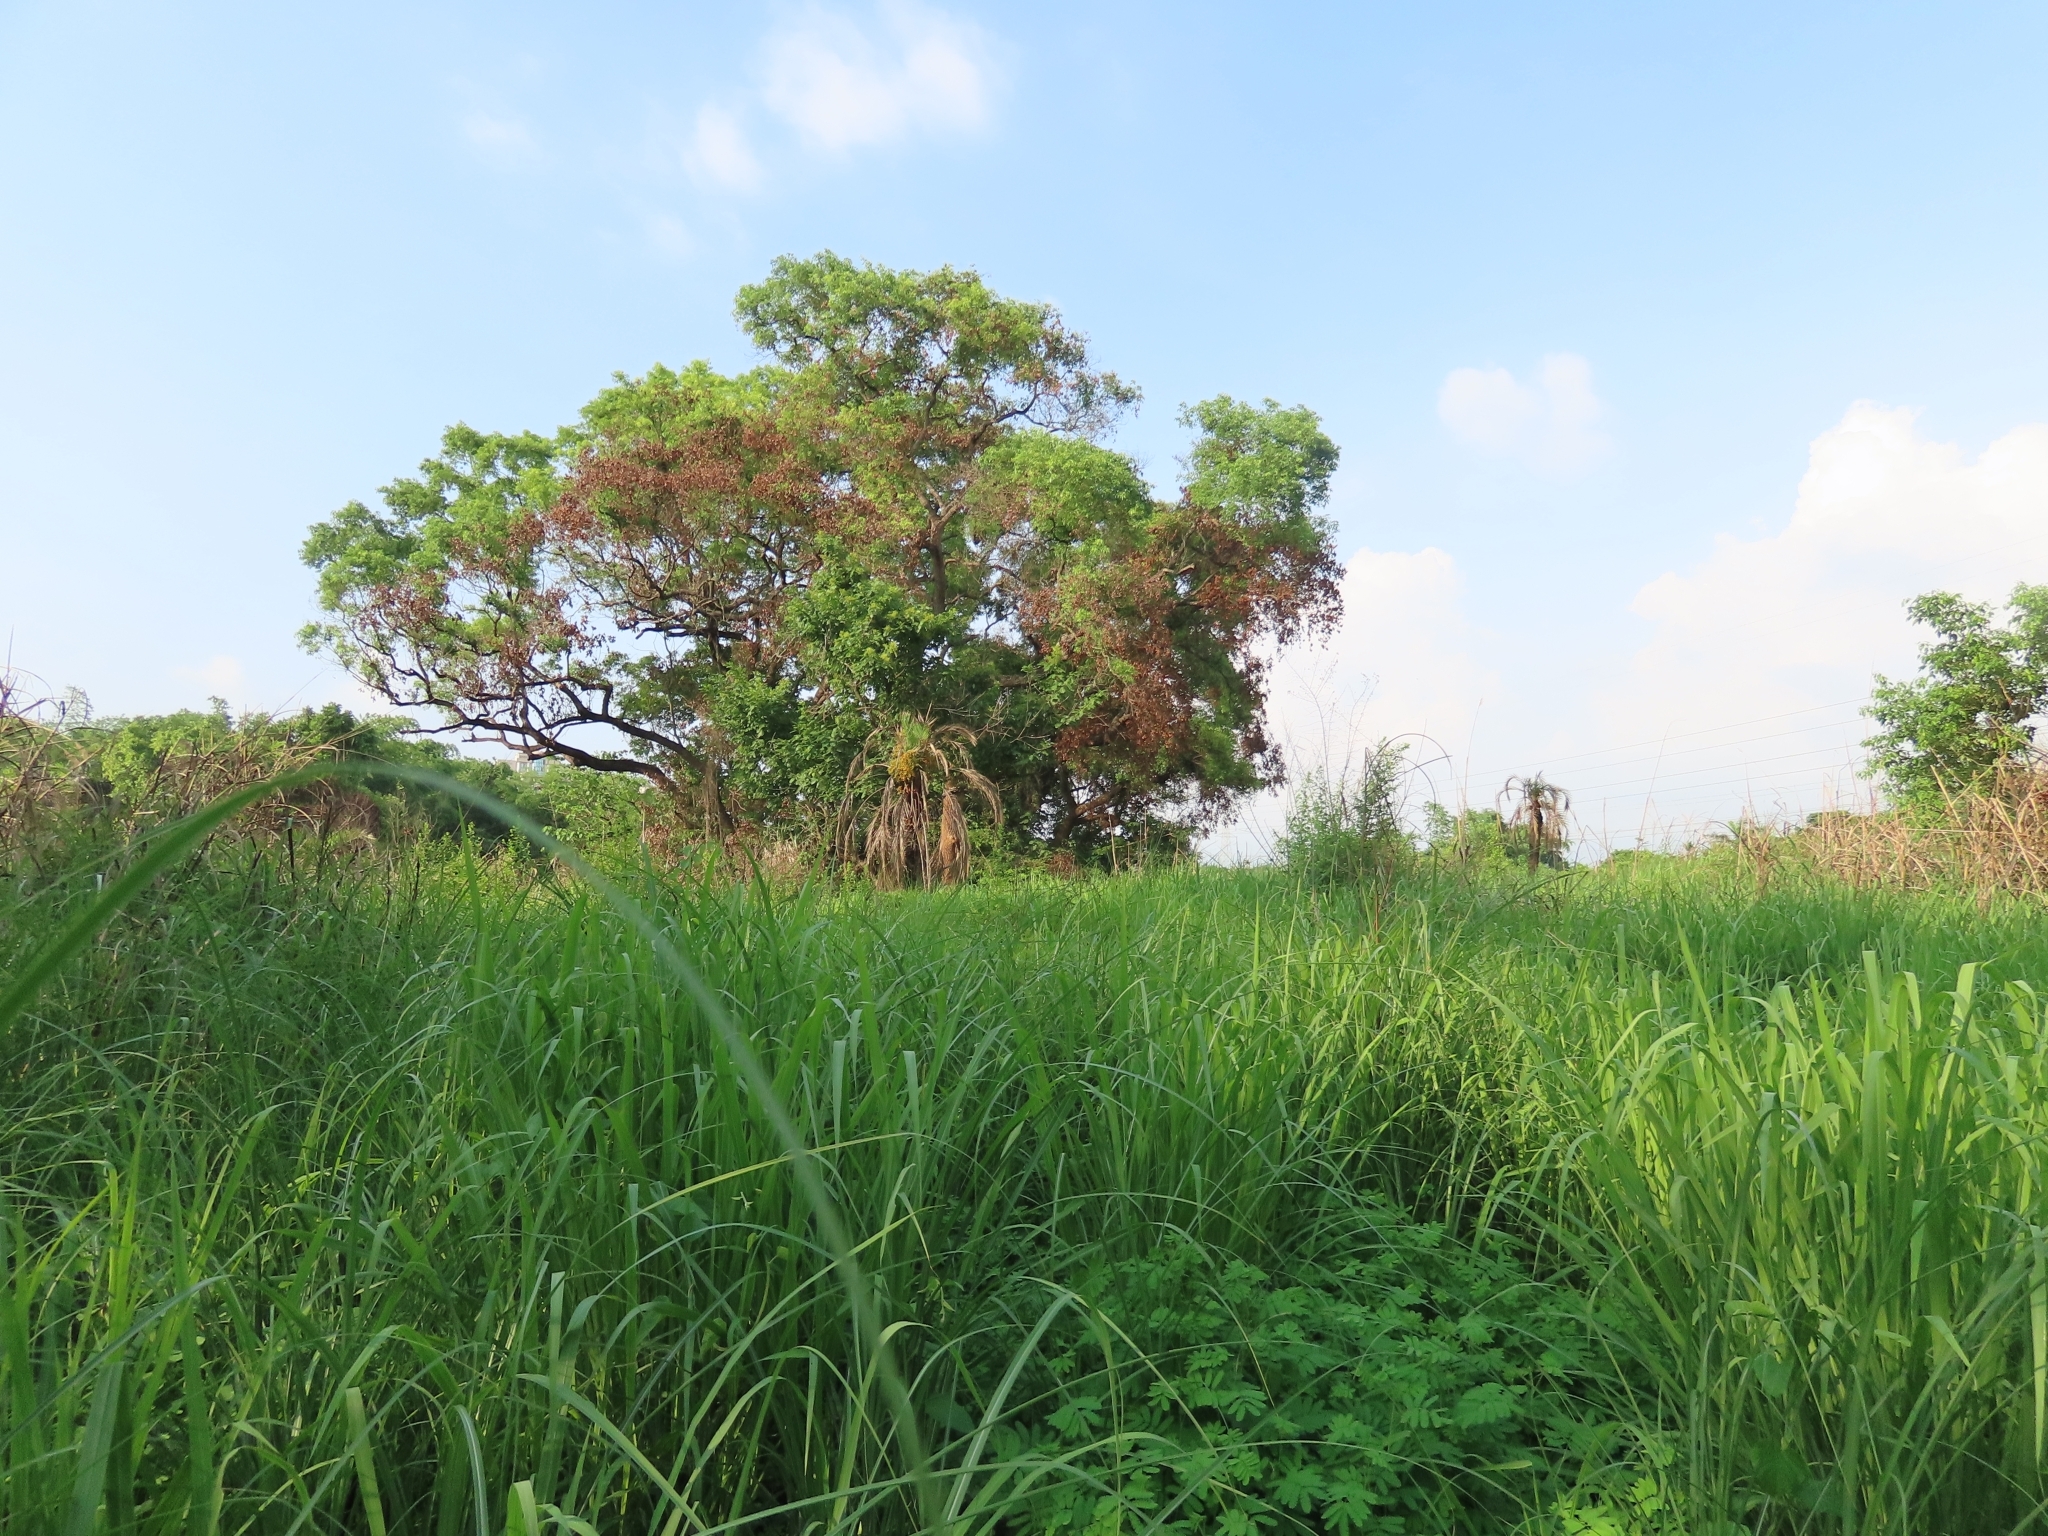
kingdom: Plantae
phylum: Tracheophyta
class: Liliopsida
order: Arecales
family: Arecaceae
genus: Phoenix
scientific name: Phoenix loureiroi
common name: Loureiro's palm
